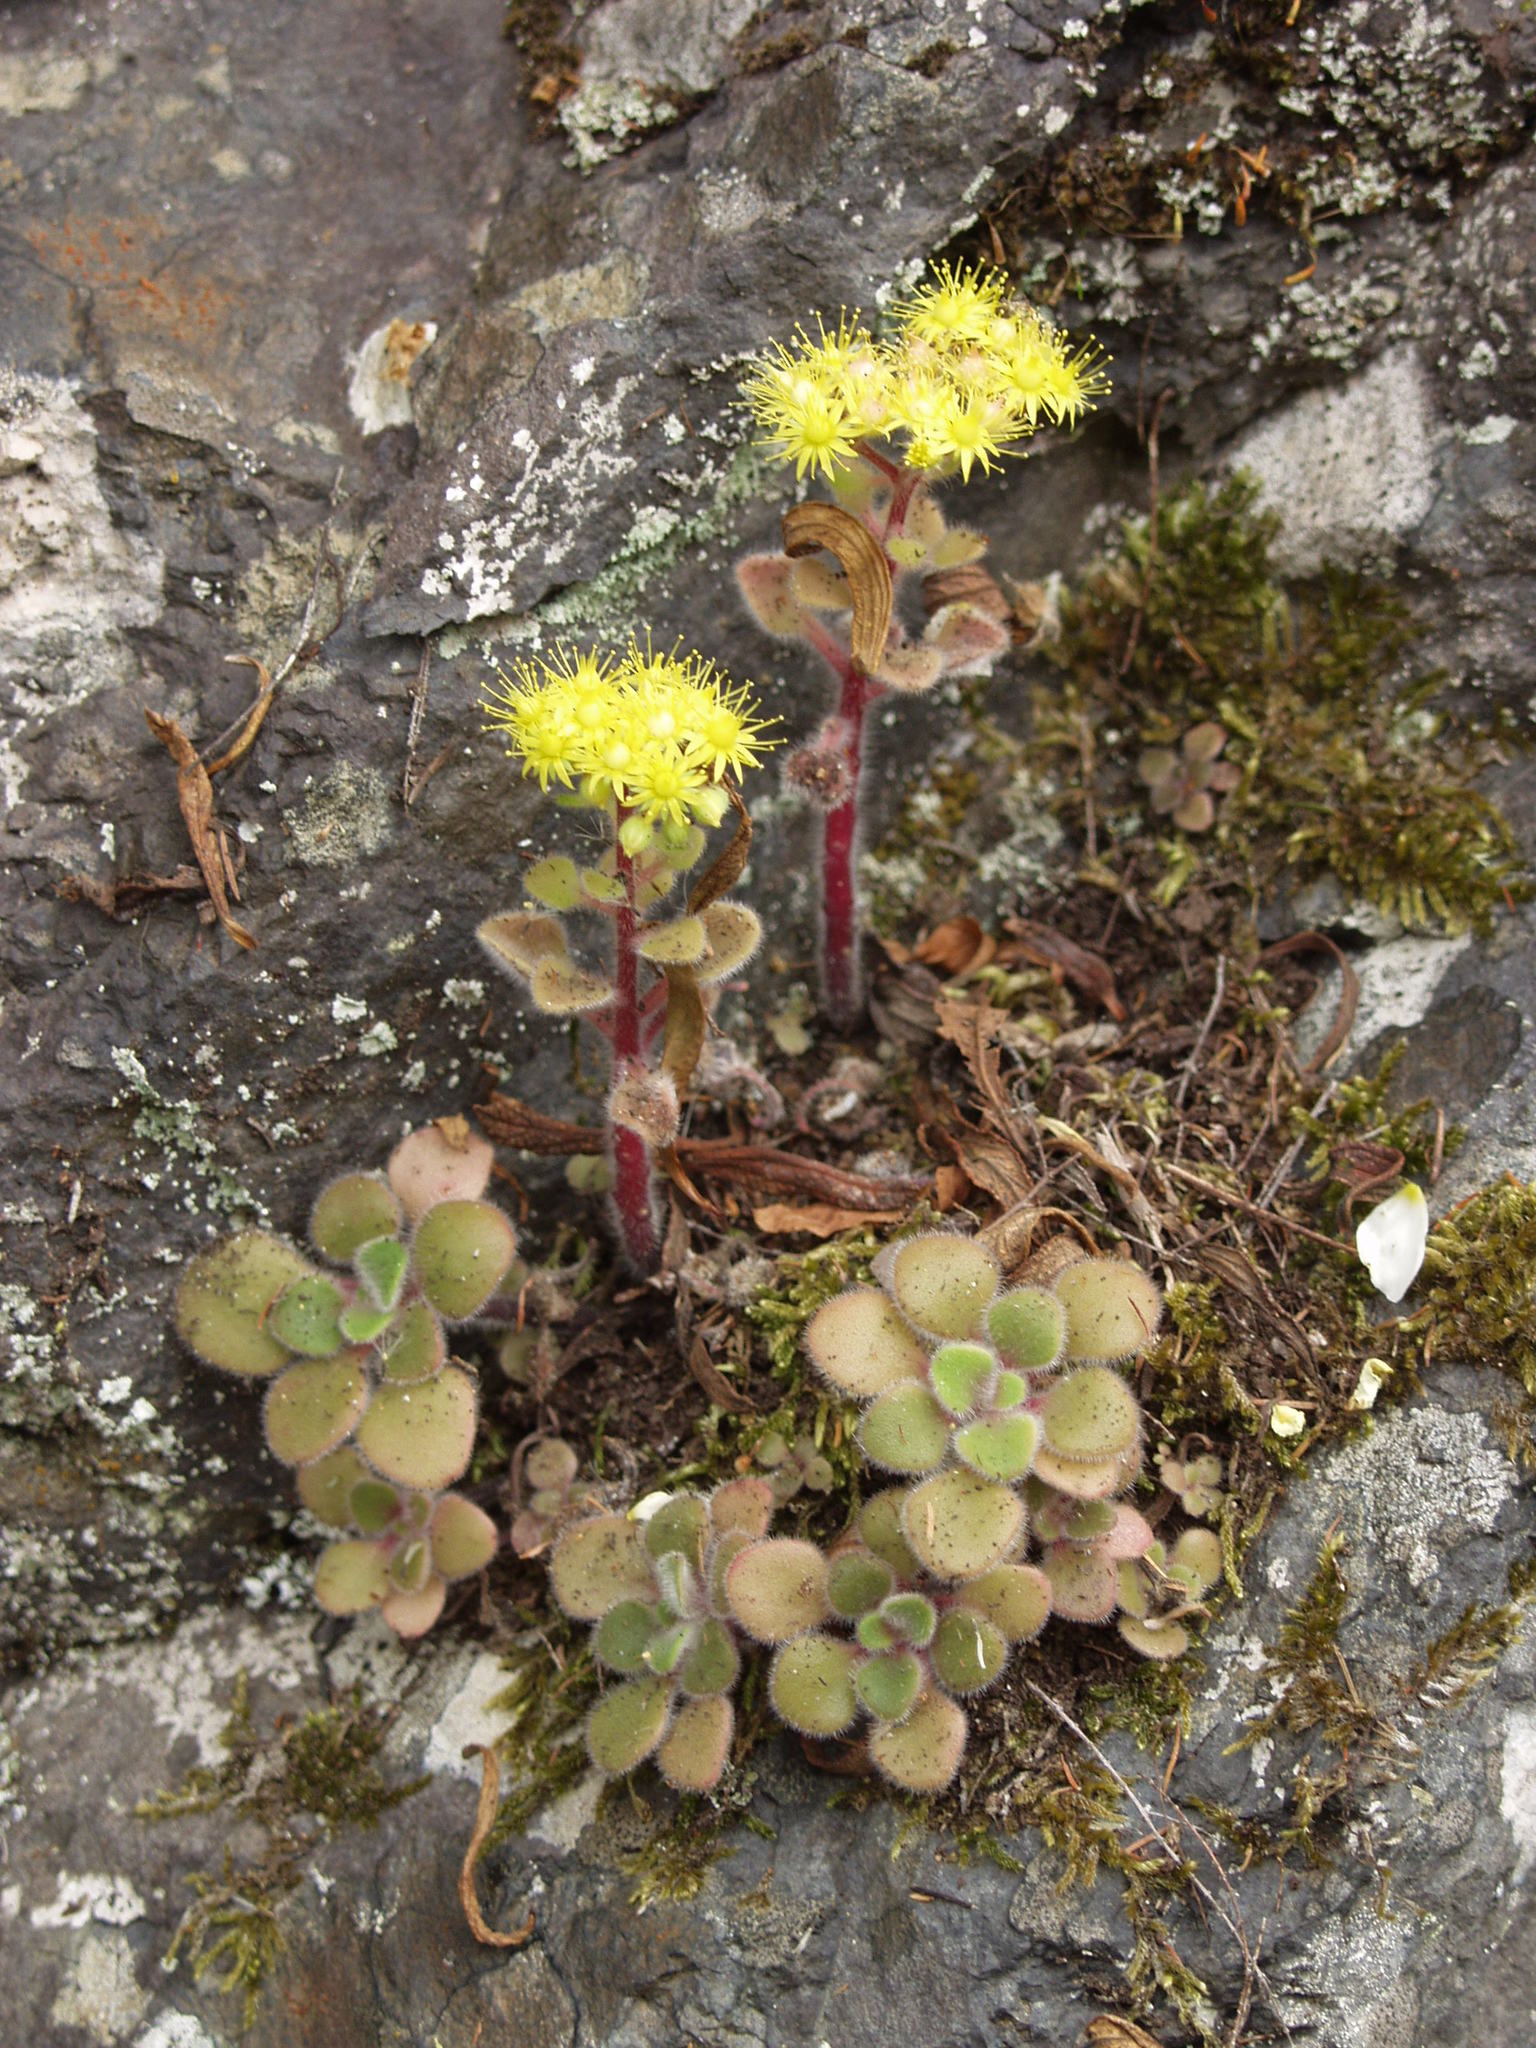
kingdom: Plantae
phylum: Tracheophyta
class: Magnoliopsida
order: Saxifragales
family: Crassulaceae
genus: Aichryson
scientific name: Aichryson laxum
